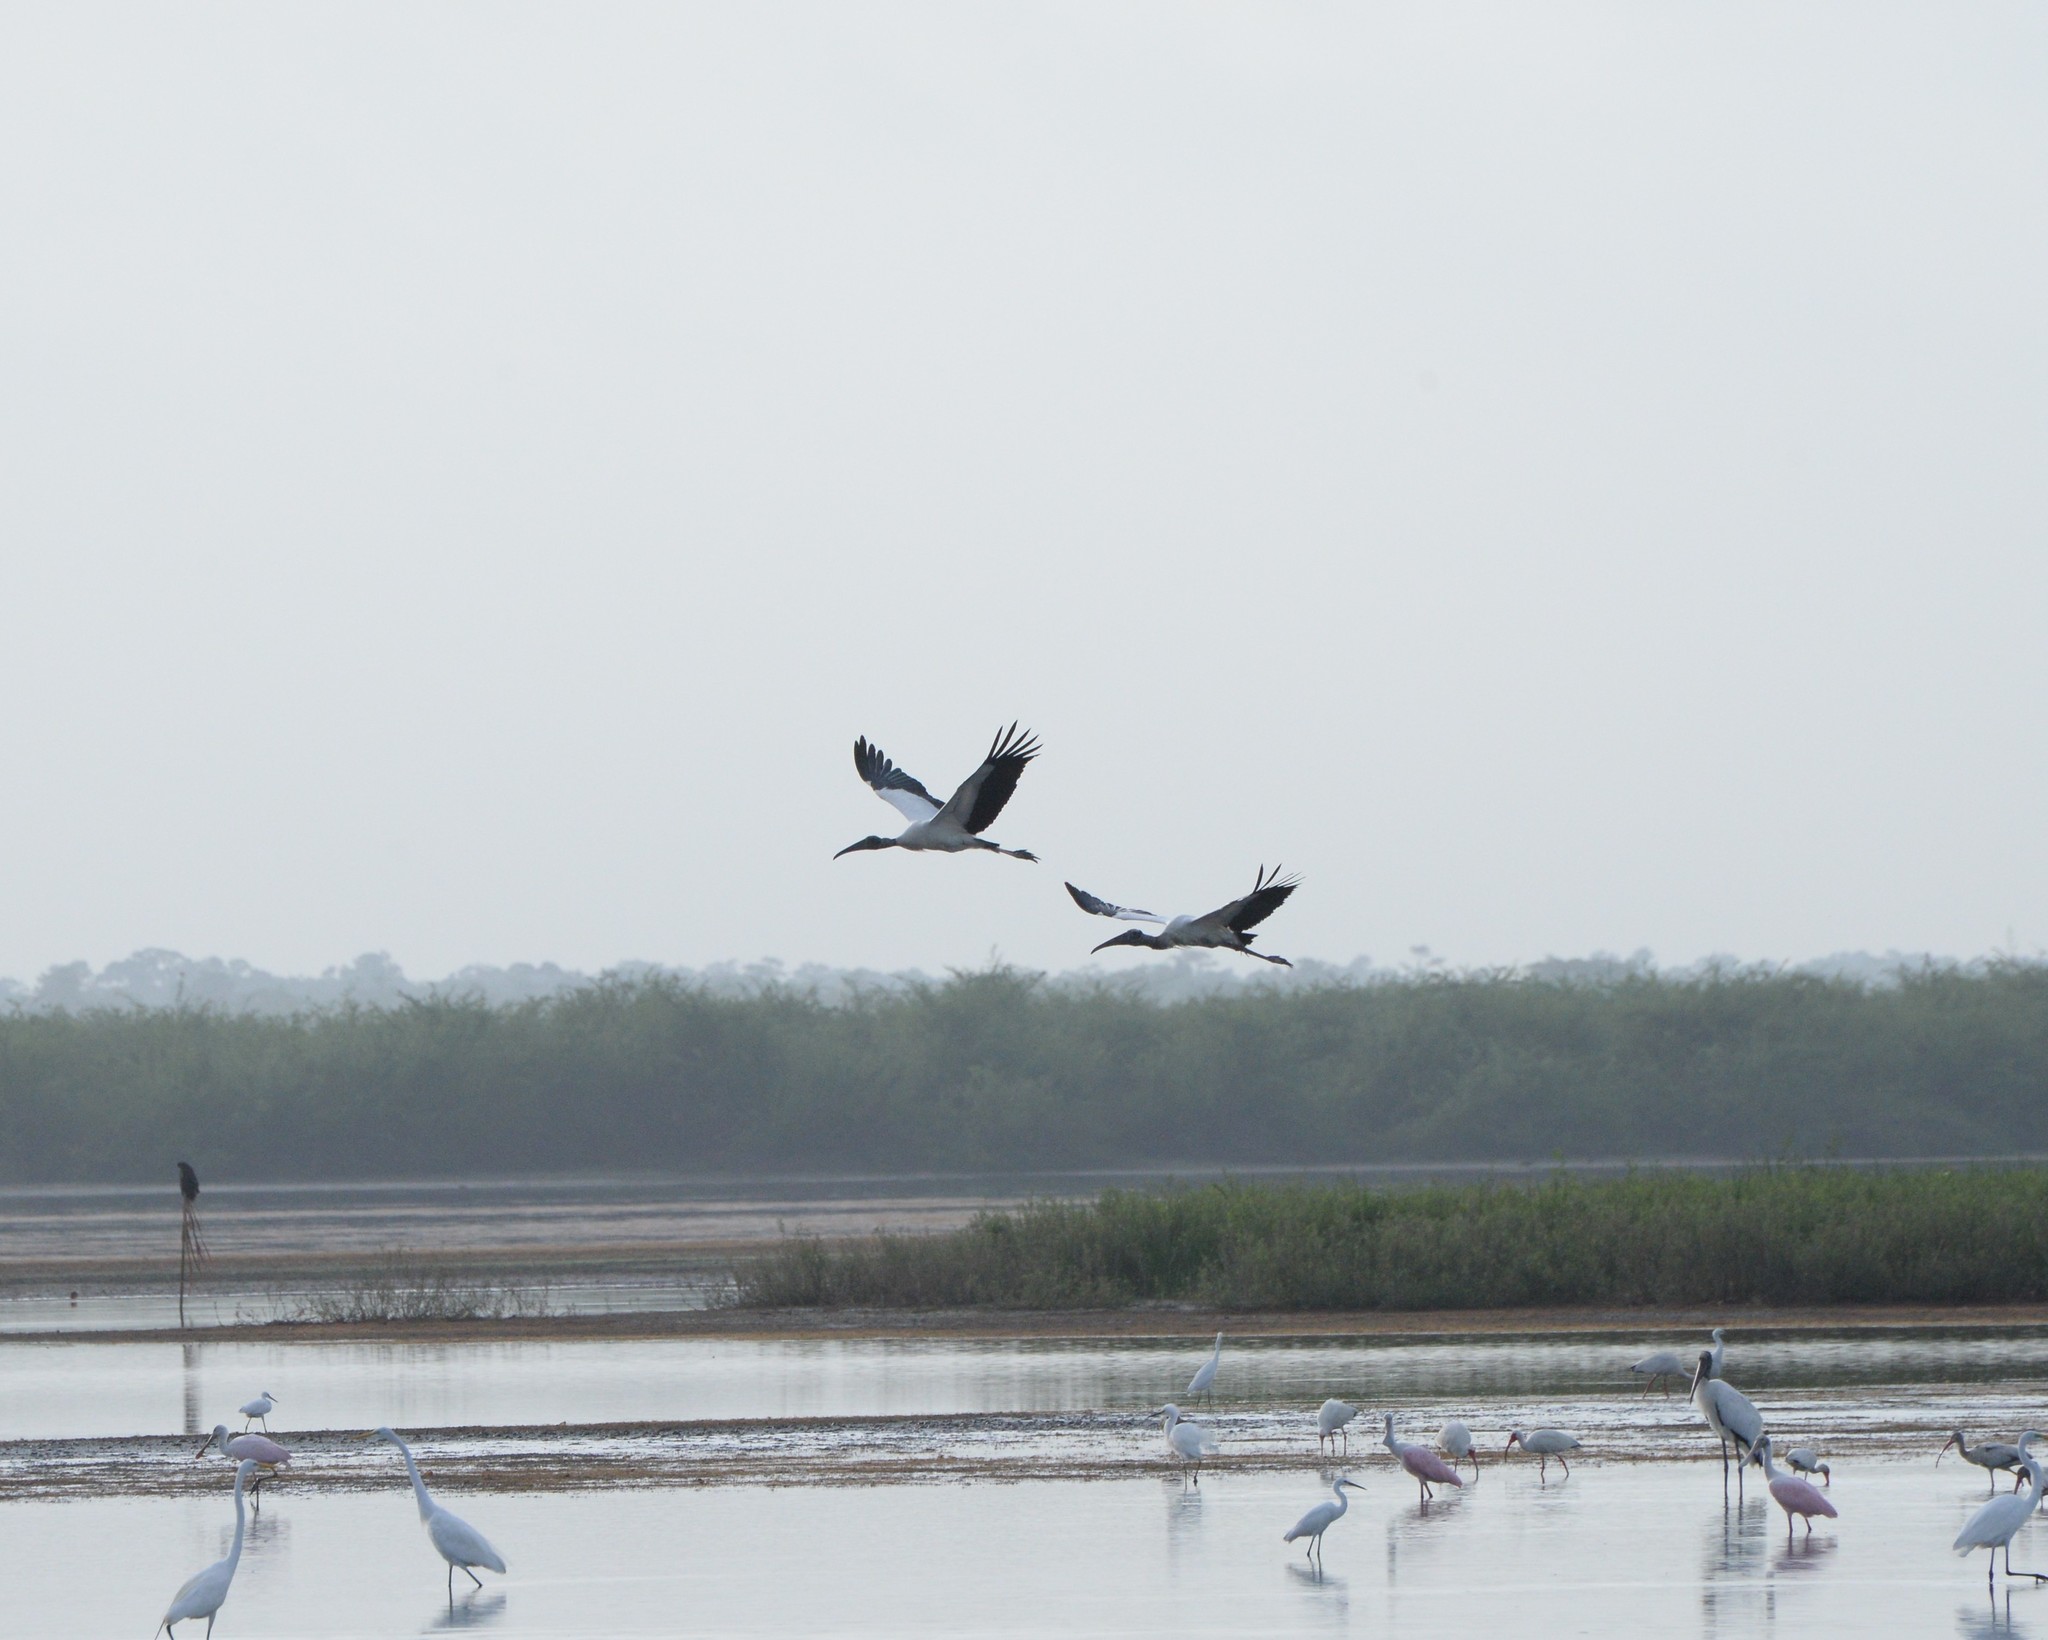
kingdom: Animalia
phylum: Chordata
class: Aves
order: Ciconiiformes
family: Ciconiidae
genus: Mycteria
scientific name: Mycteria americana
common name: Wood stork
